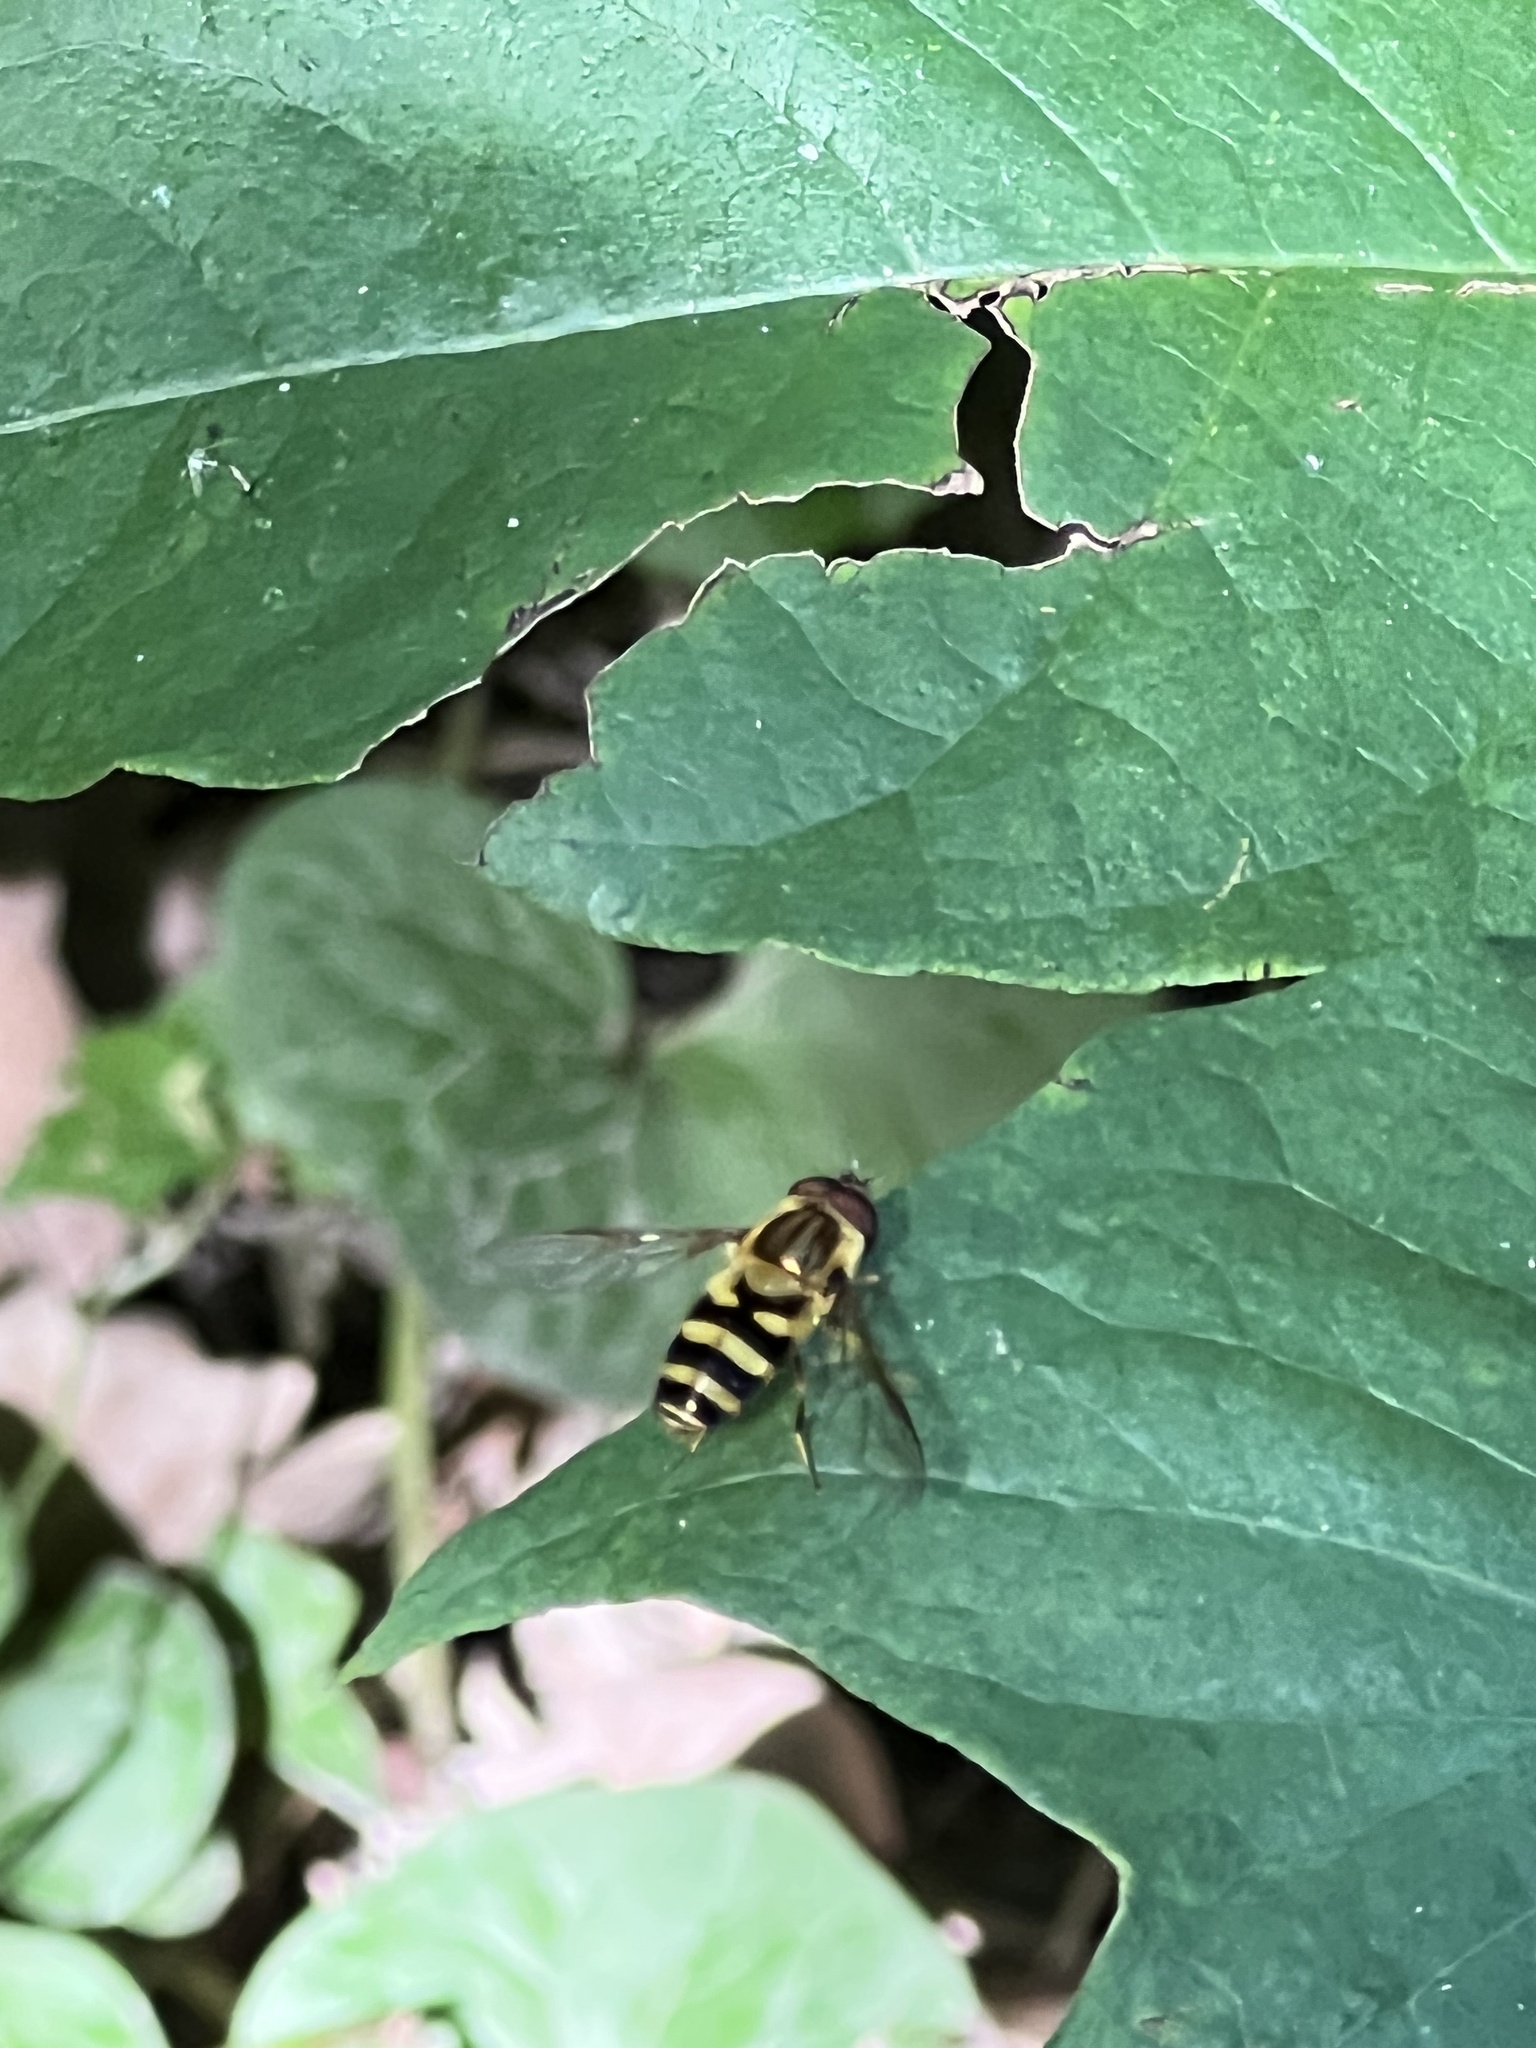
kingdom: Animalia
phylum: Arthropoda
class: Insecta
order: Diptera
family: Syrphidae
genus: Syrphus
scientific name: Syrphus knabi
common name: Eastern flower fly
